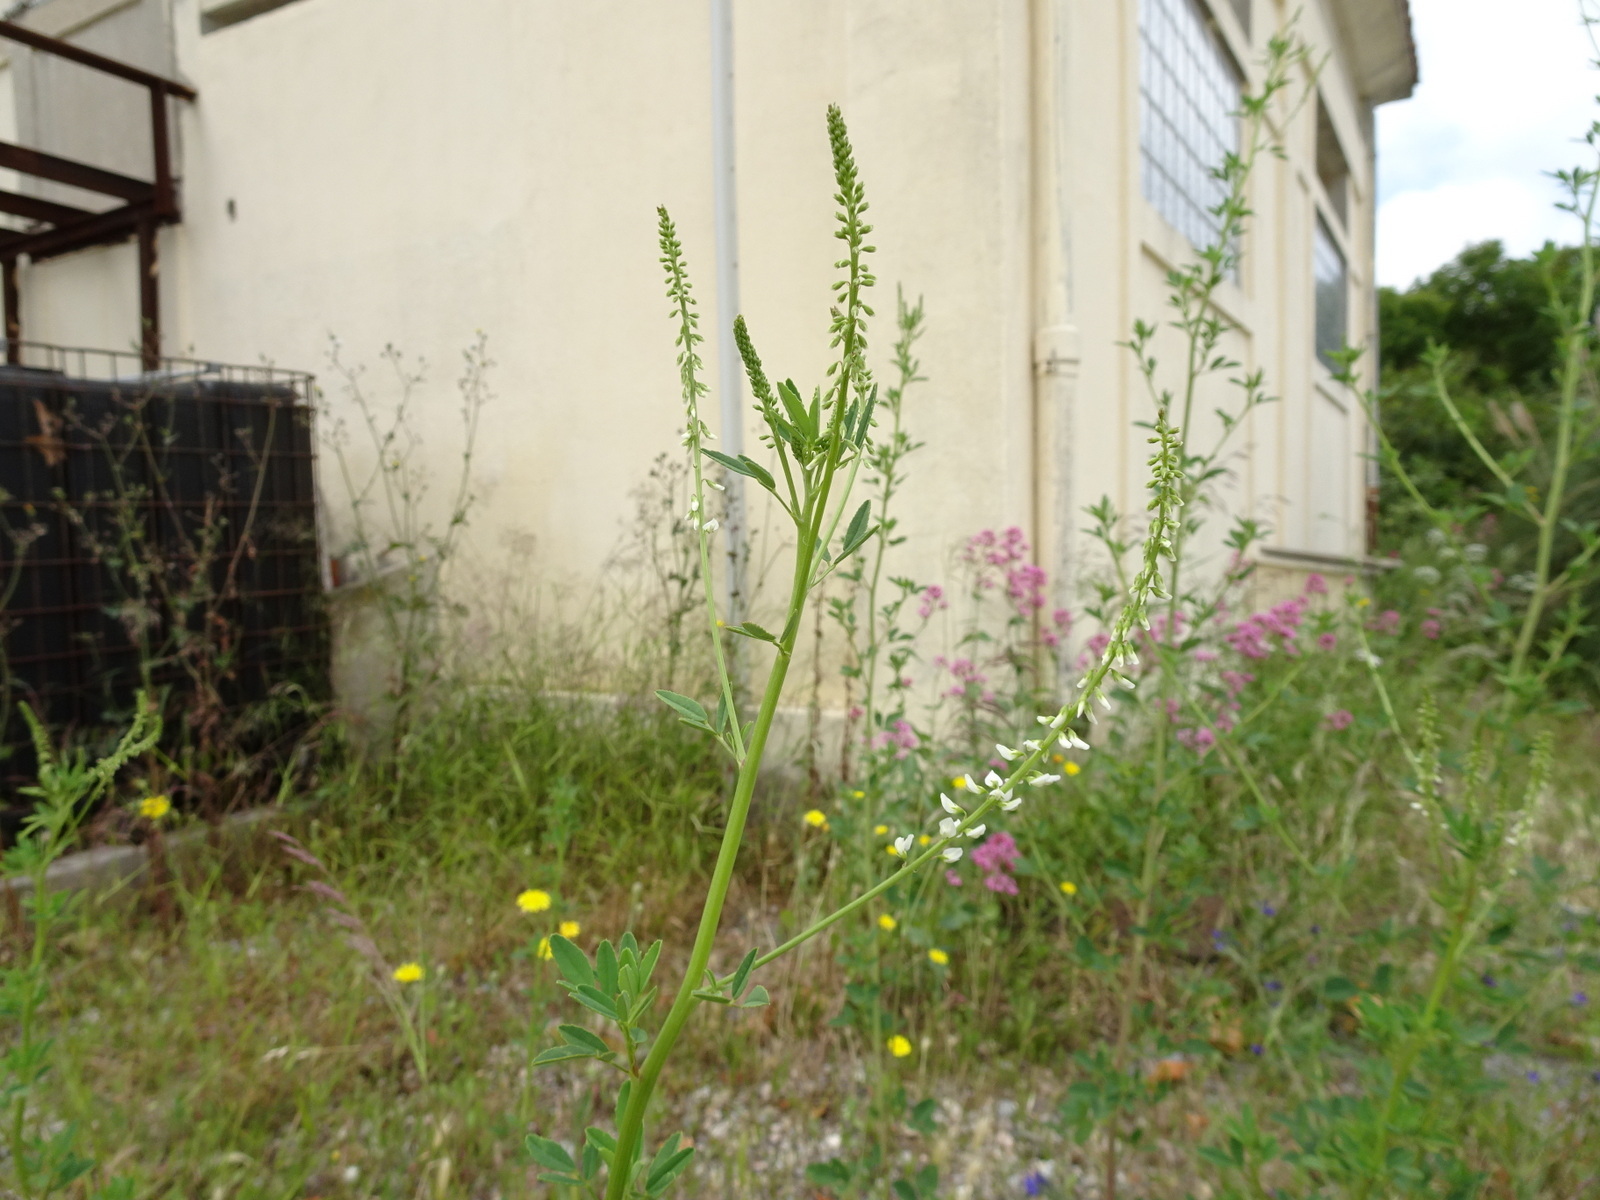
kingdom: Plantae
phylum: Tracheophyta
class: Magnoliopsida
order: Fabales
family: Fabaceae
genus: Melilotus
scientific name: Melilotus albus
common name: White melilot
